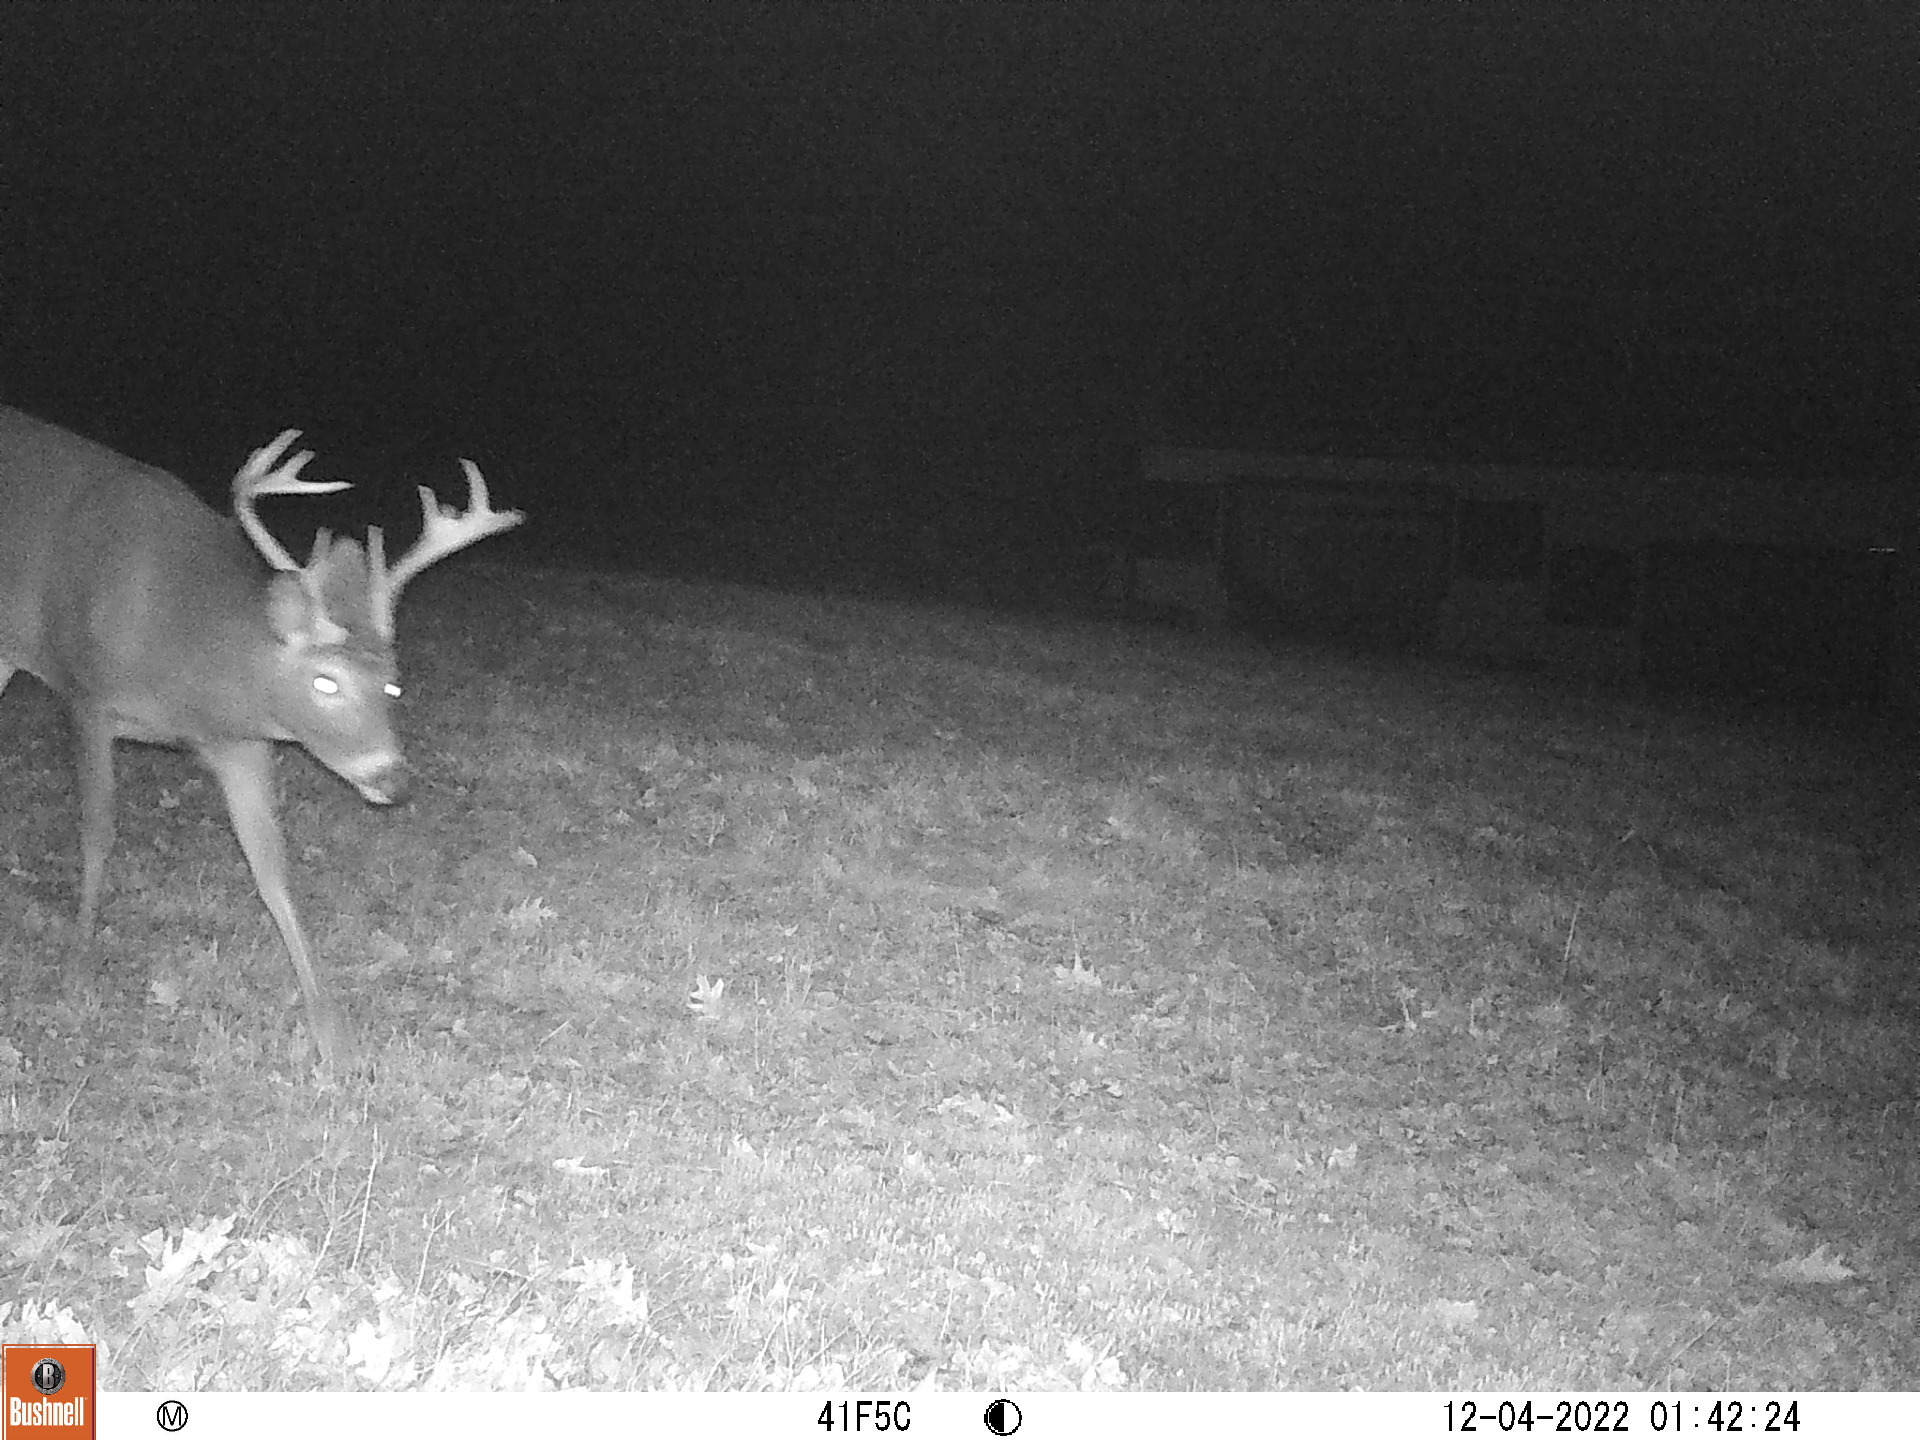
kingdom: Animalia
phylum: Chordata
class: Mammalia
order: Artiodactyla
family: Cervidae
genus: Odocoileus
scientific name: Odocoileus virginianus
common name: White-tailed deer
